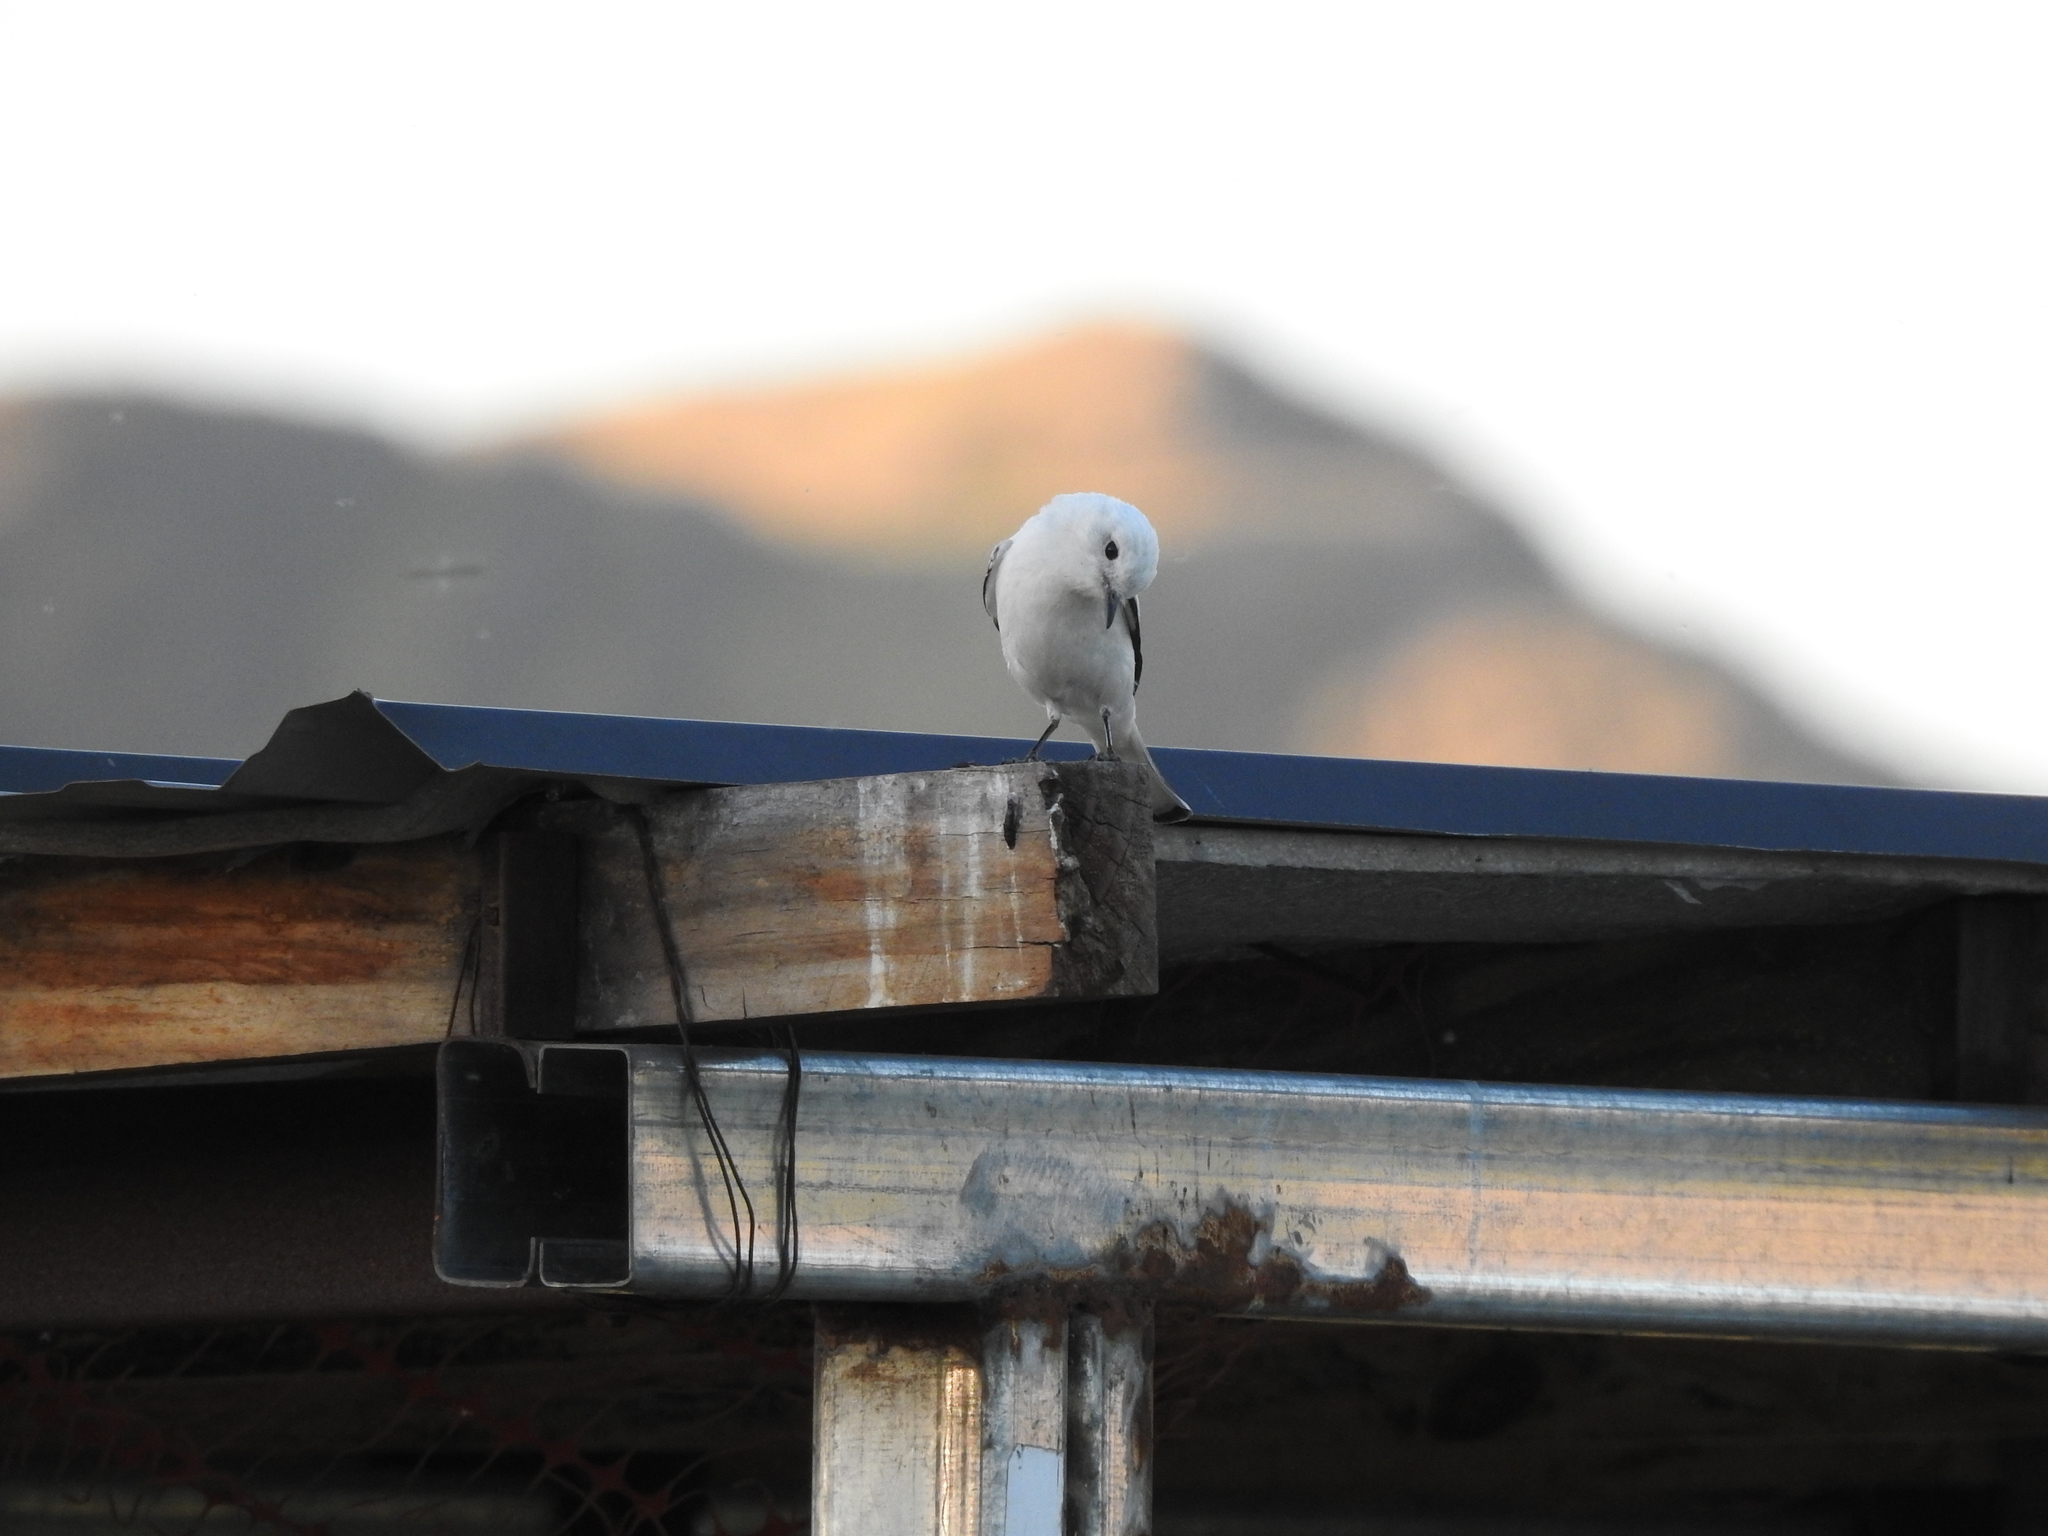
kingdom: Animalia
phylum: Chordata
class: Aves
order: Passeriformes
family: Tyrannidae
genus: Xolmis
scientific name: Xolmis irupero
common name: White monjita
